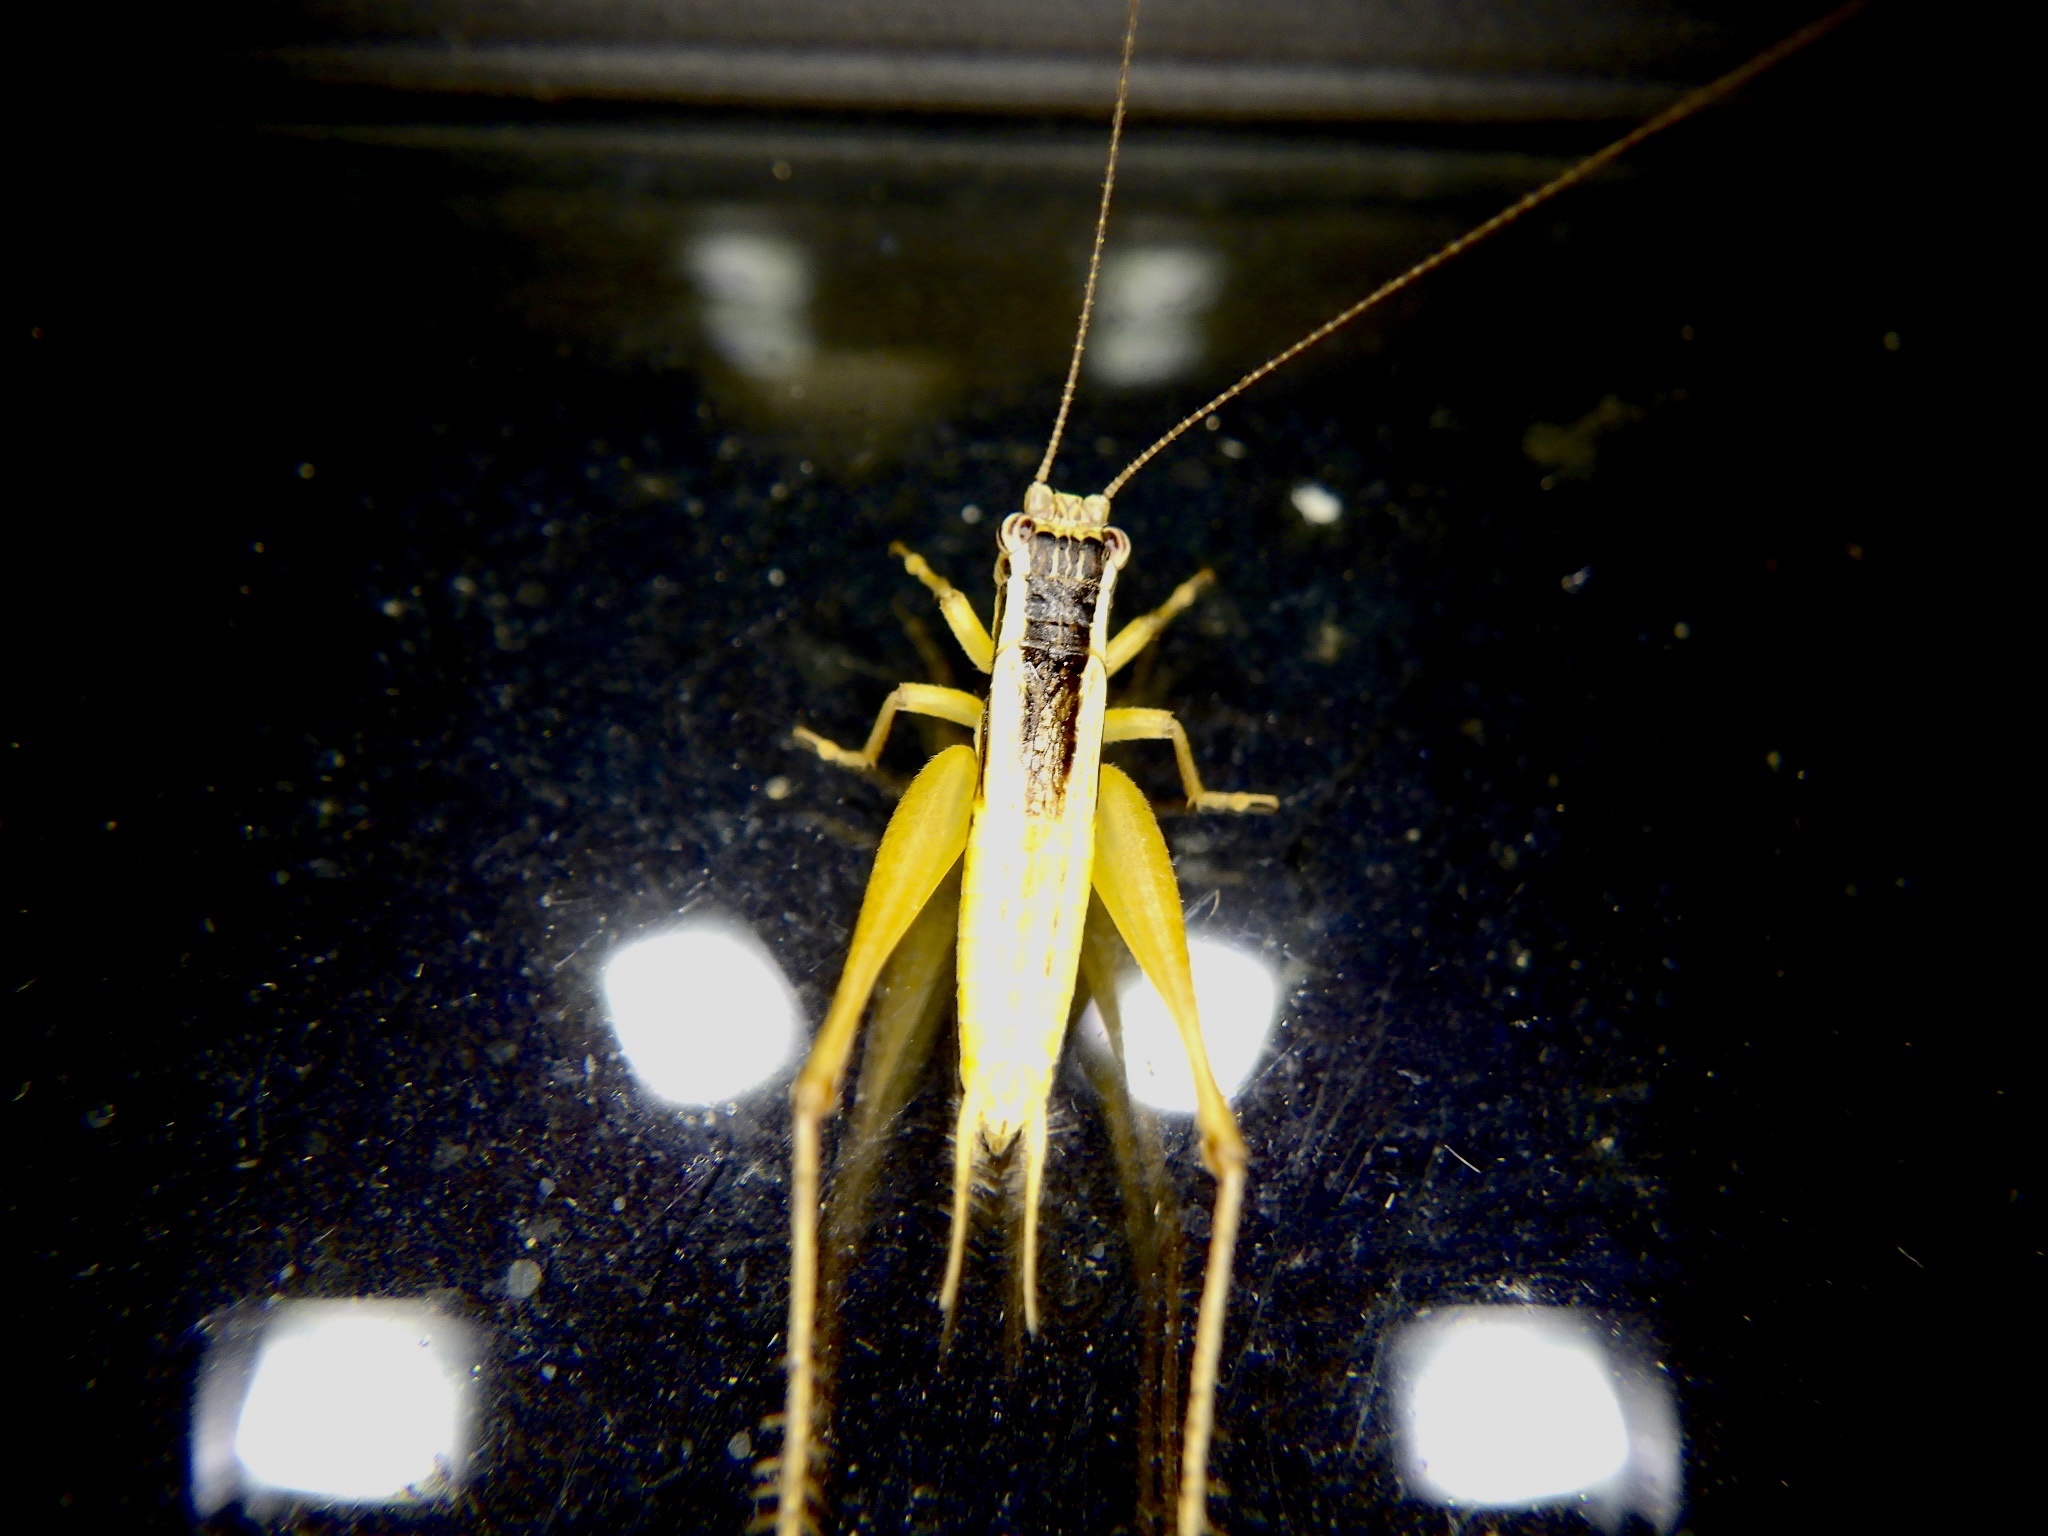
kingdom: Animalia
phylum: Arthropoda
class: Insecta
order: Orthoptera
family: Gryllidae
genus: Euscyrtus
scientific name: Euscyrtus japonicus
